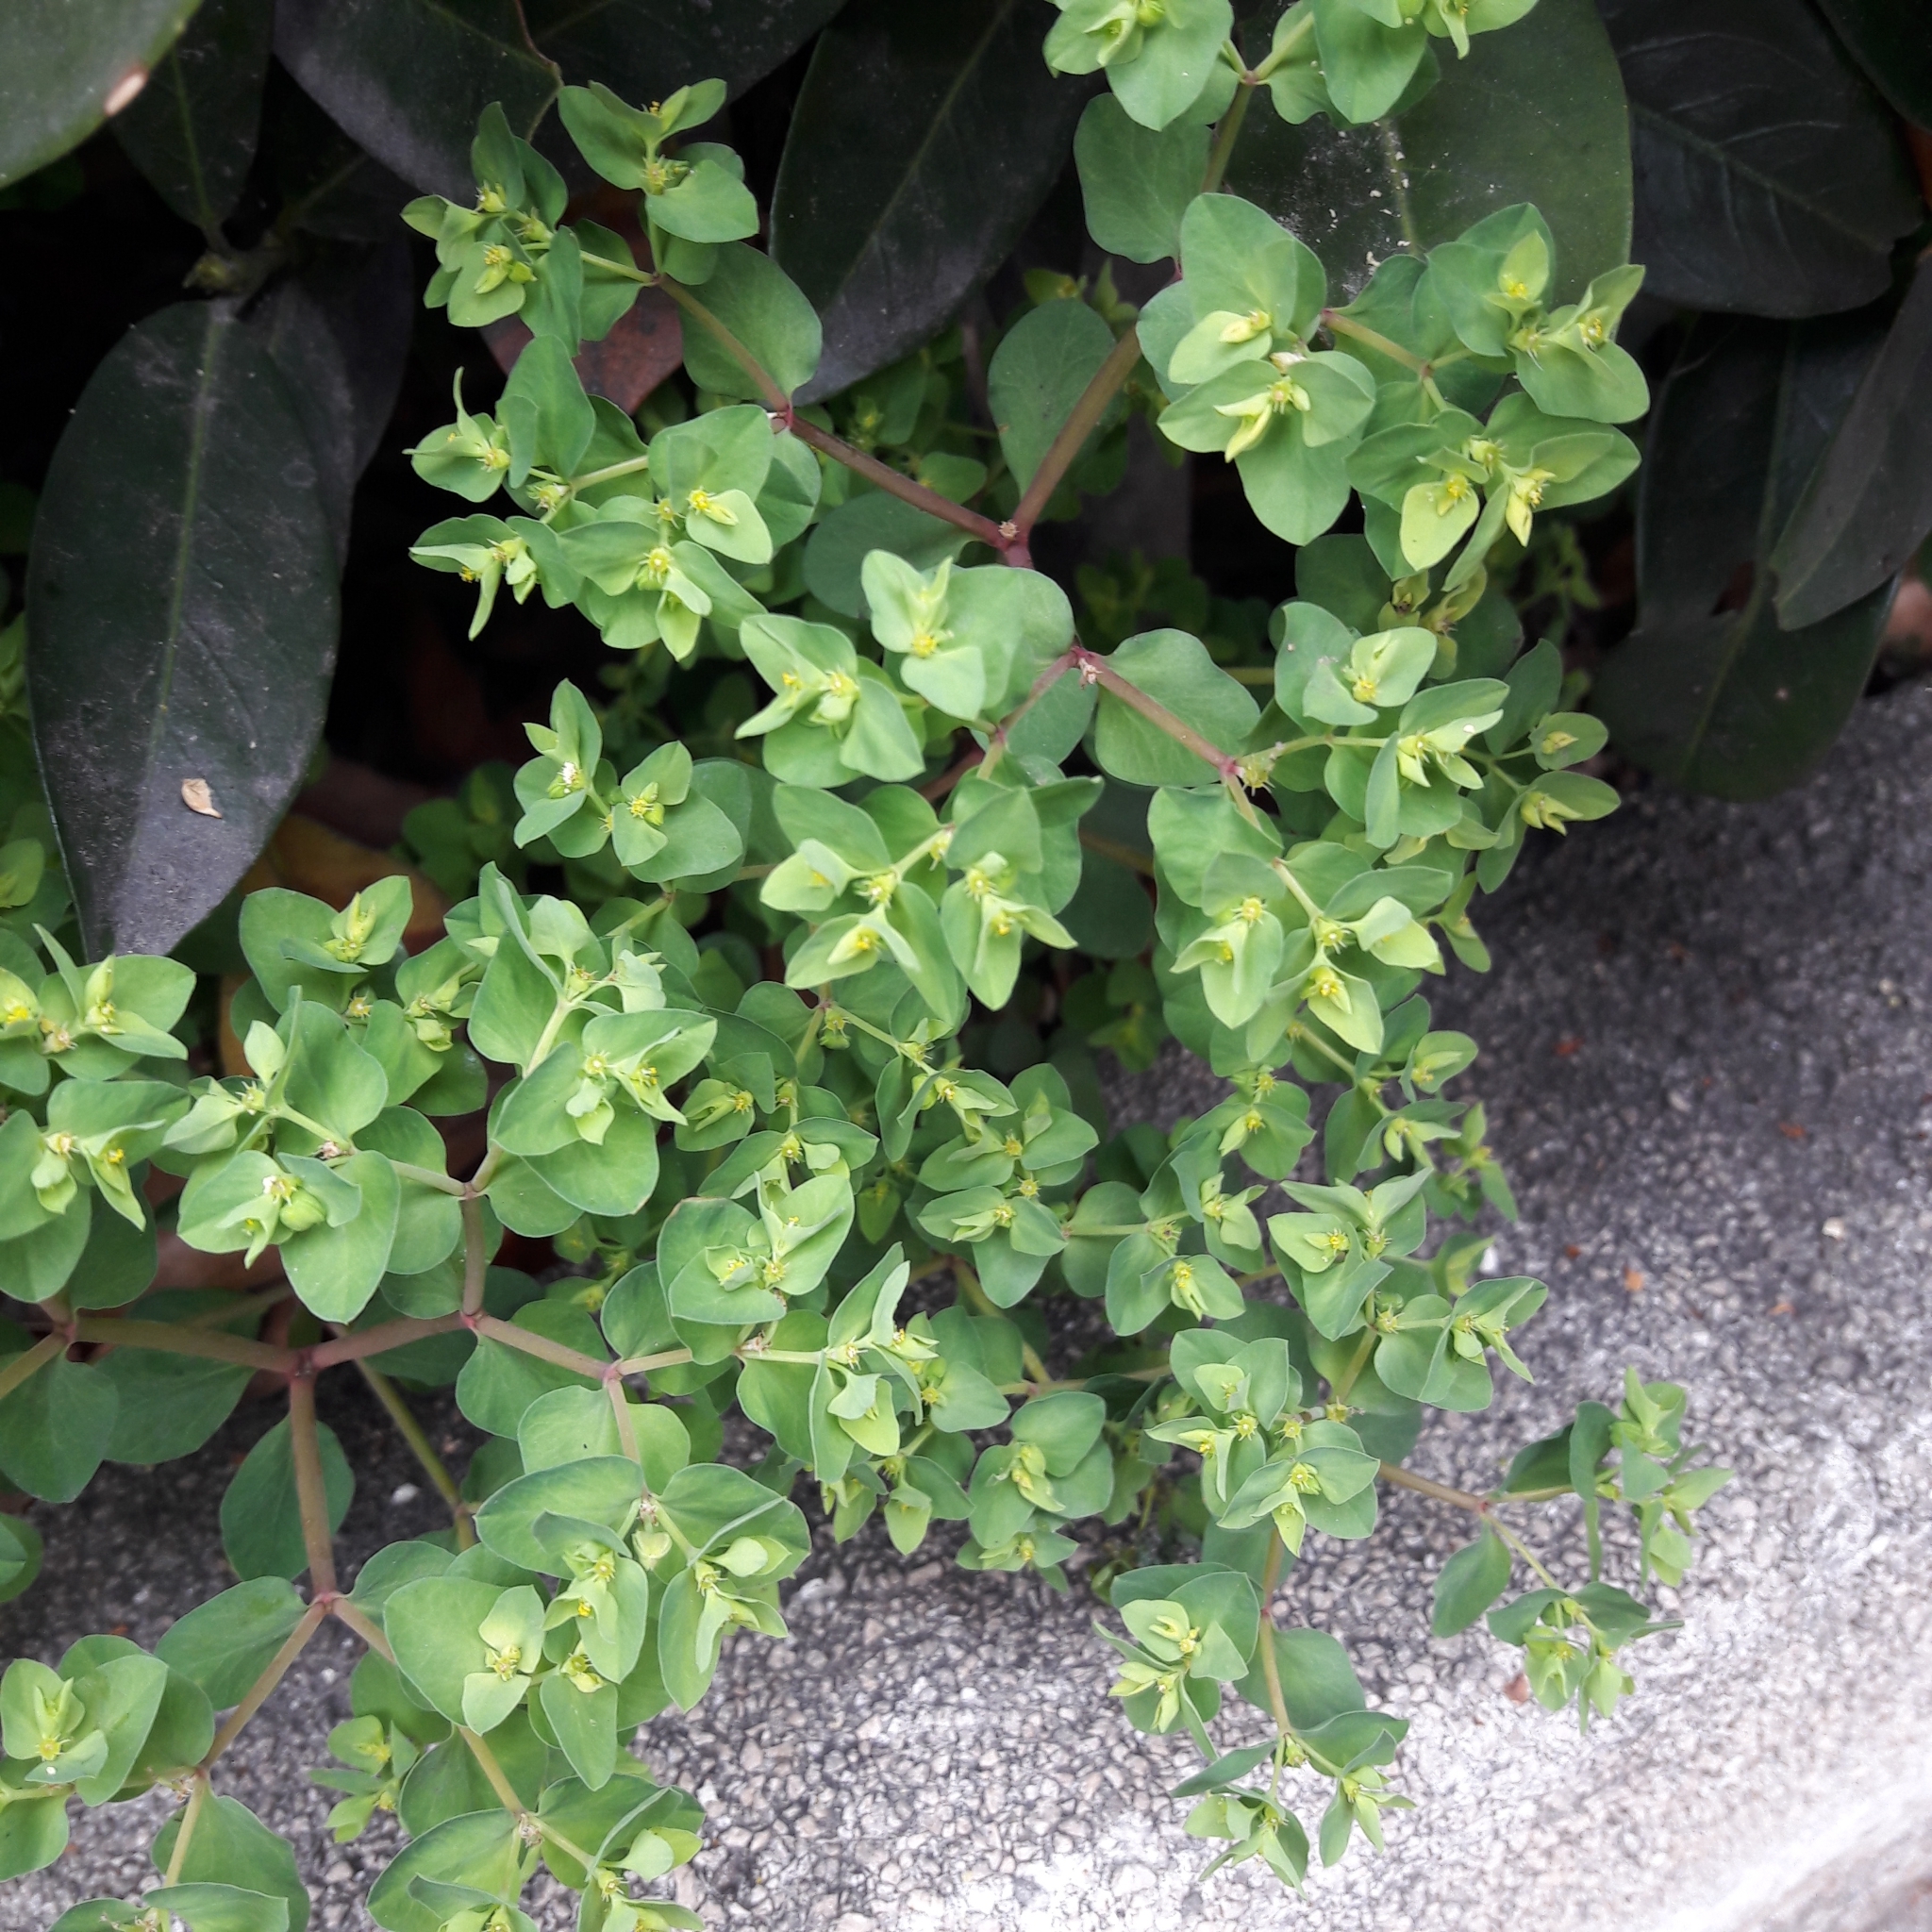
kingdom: Plantae
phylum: Tracheophyta
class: Magnoliopsida
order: Malpighiales
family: Euphorbiaceae
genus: Euphorbia
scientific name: Euphorbia peplus
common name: Petty spurge
